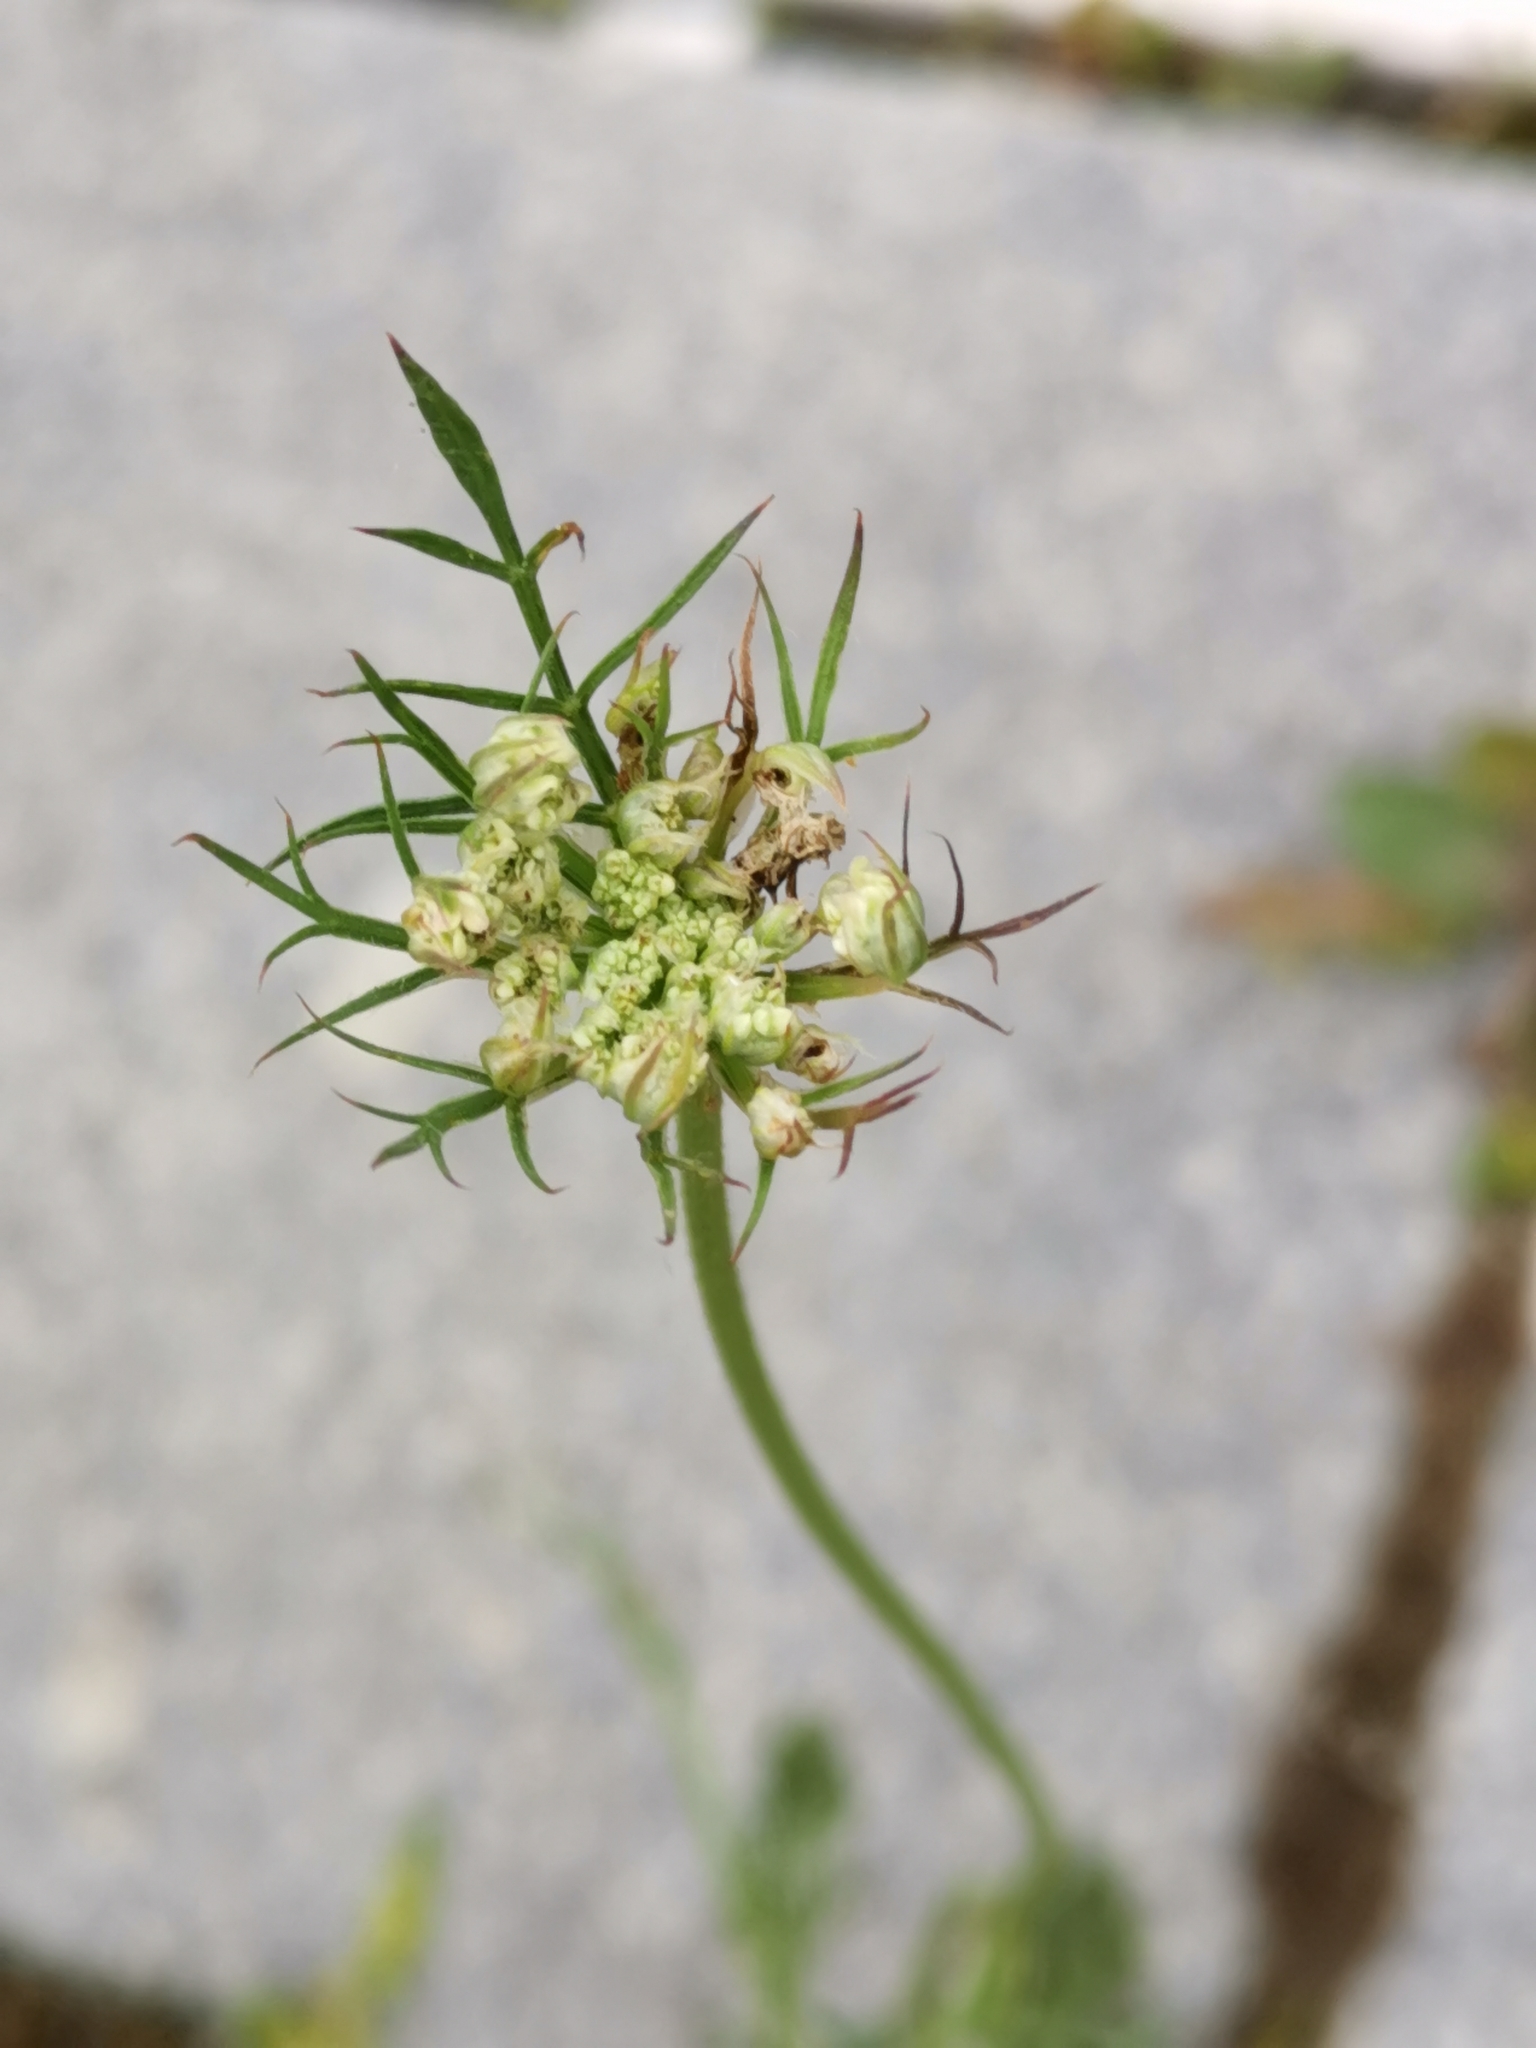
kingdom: Plantae
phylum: Tracheophyta
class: Magnoliopsida
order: Apiales
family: Apiaceae
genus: Daucus
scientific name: Daucus carota
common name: Wild carrot
